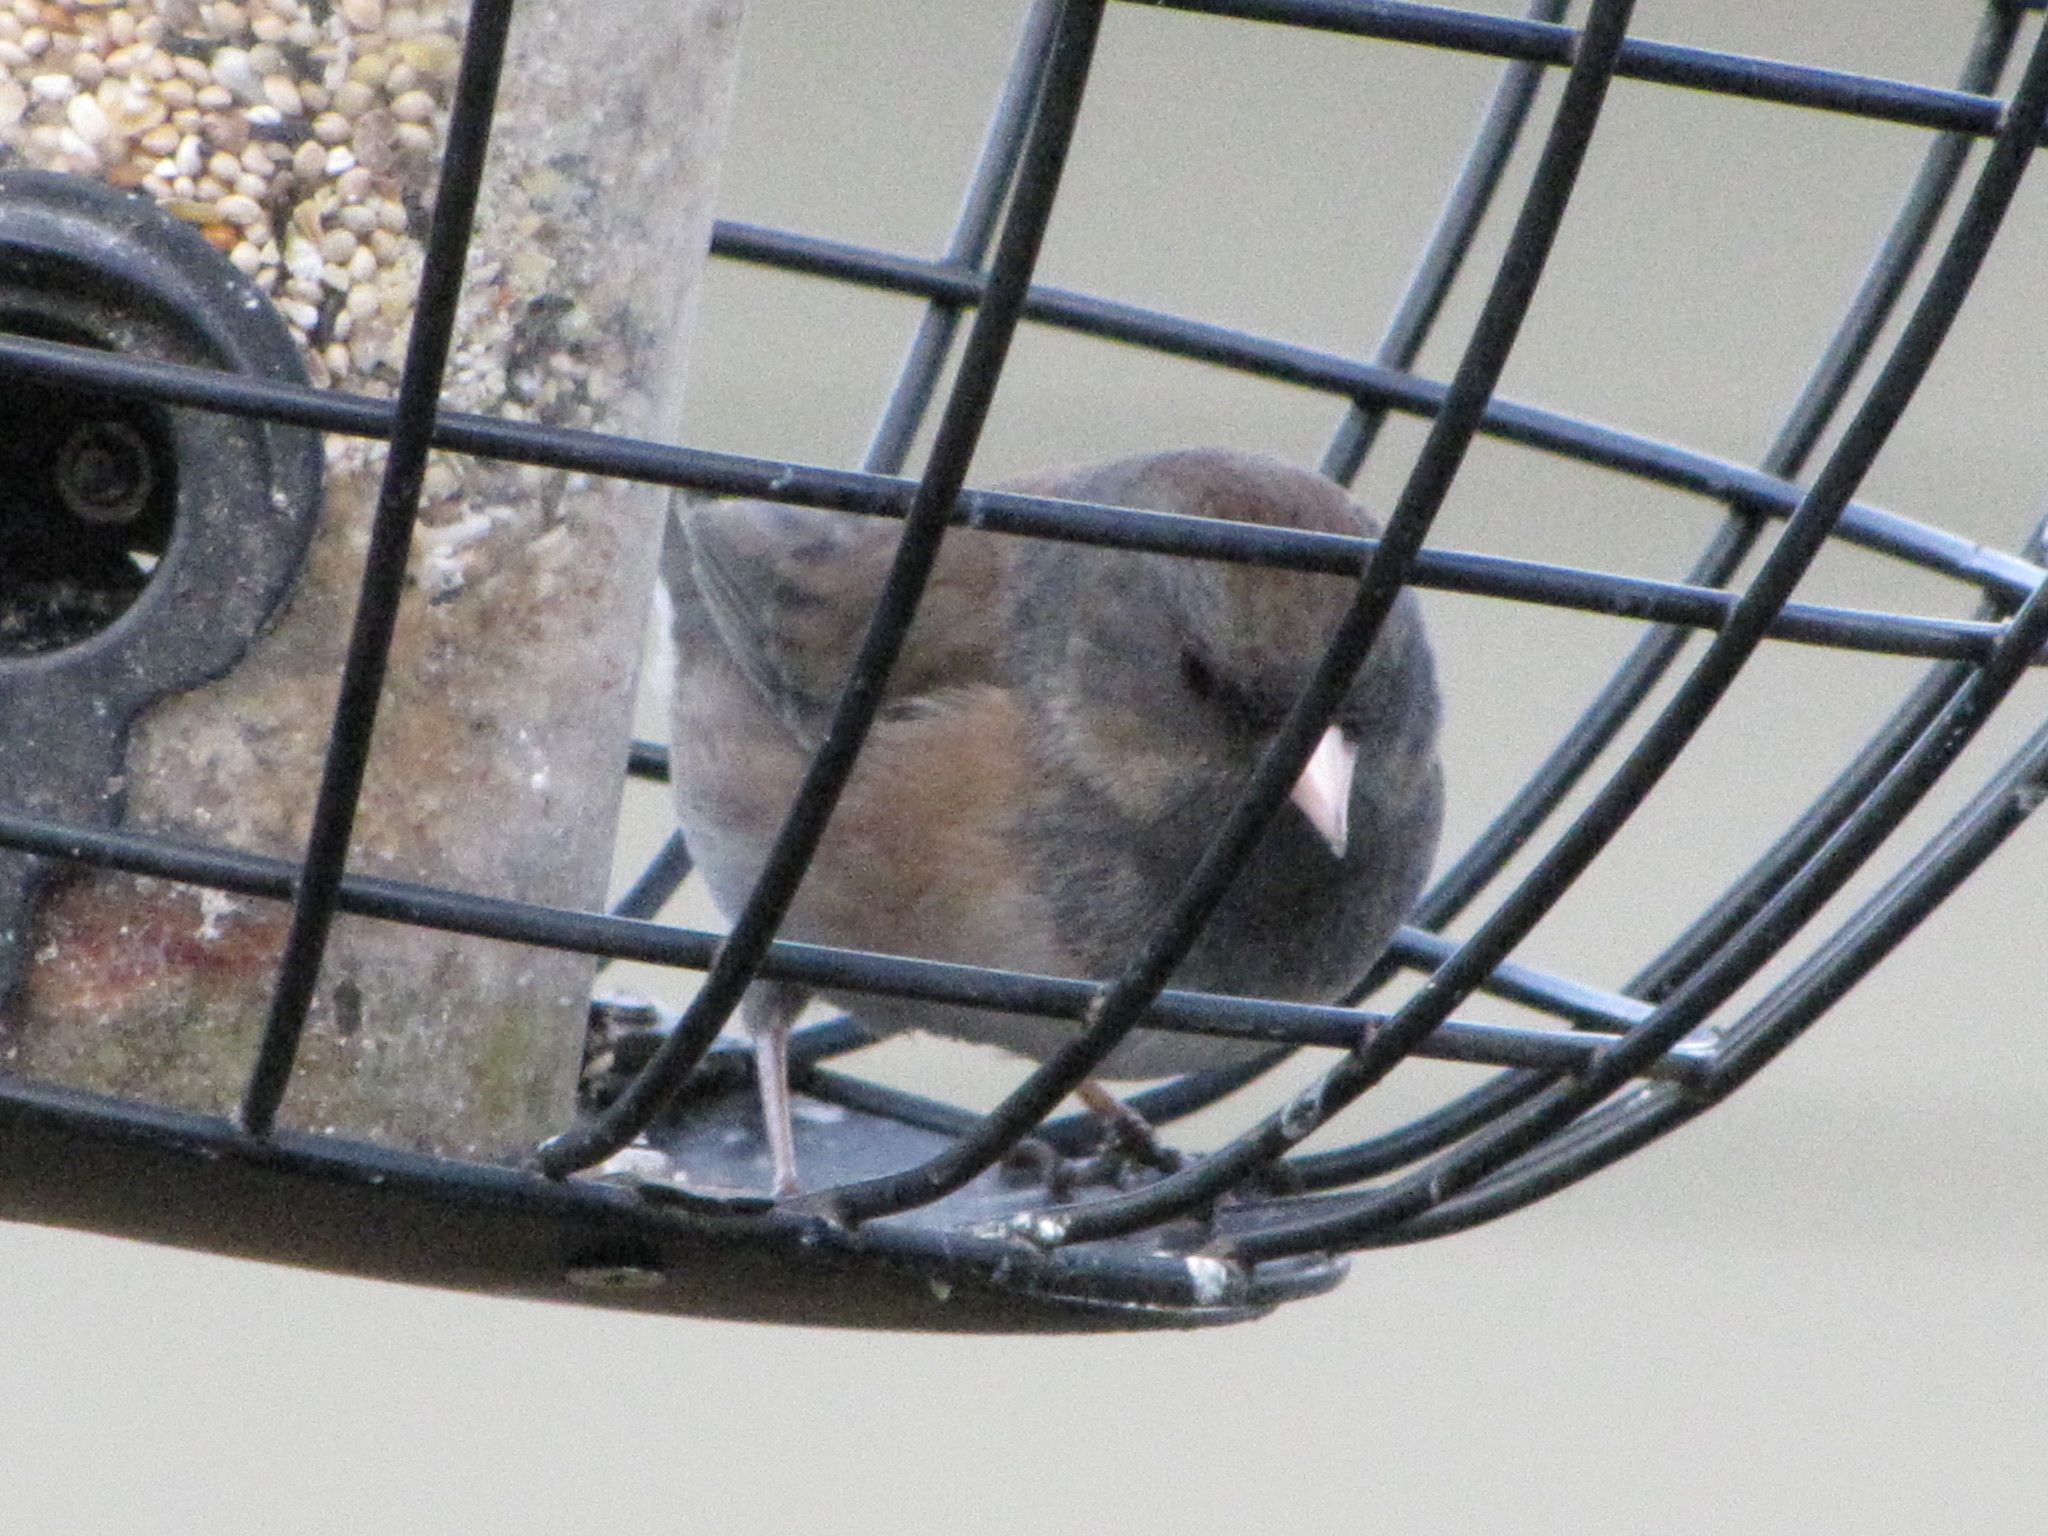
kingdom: Animalia
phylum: Chordata
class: Aves
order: Passeriformes
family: Passerellidae
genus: Junco
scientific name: Junco hyemalis
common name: Dark-eyed junco
